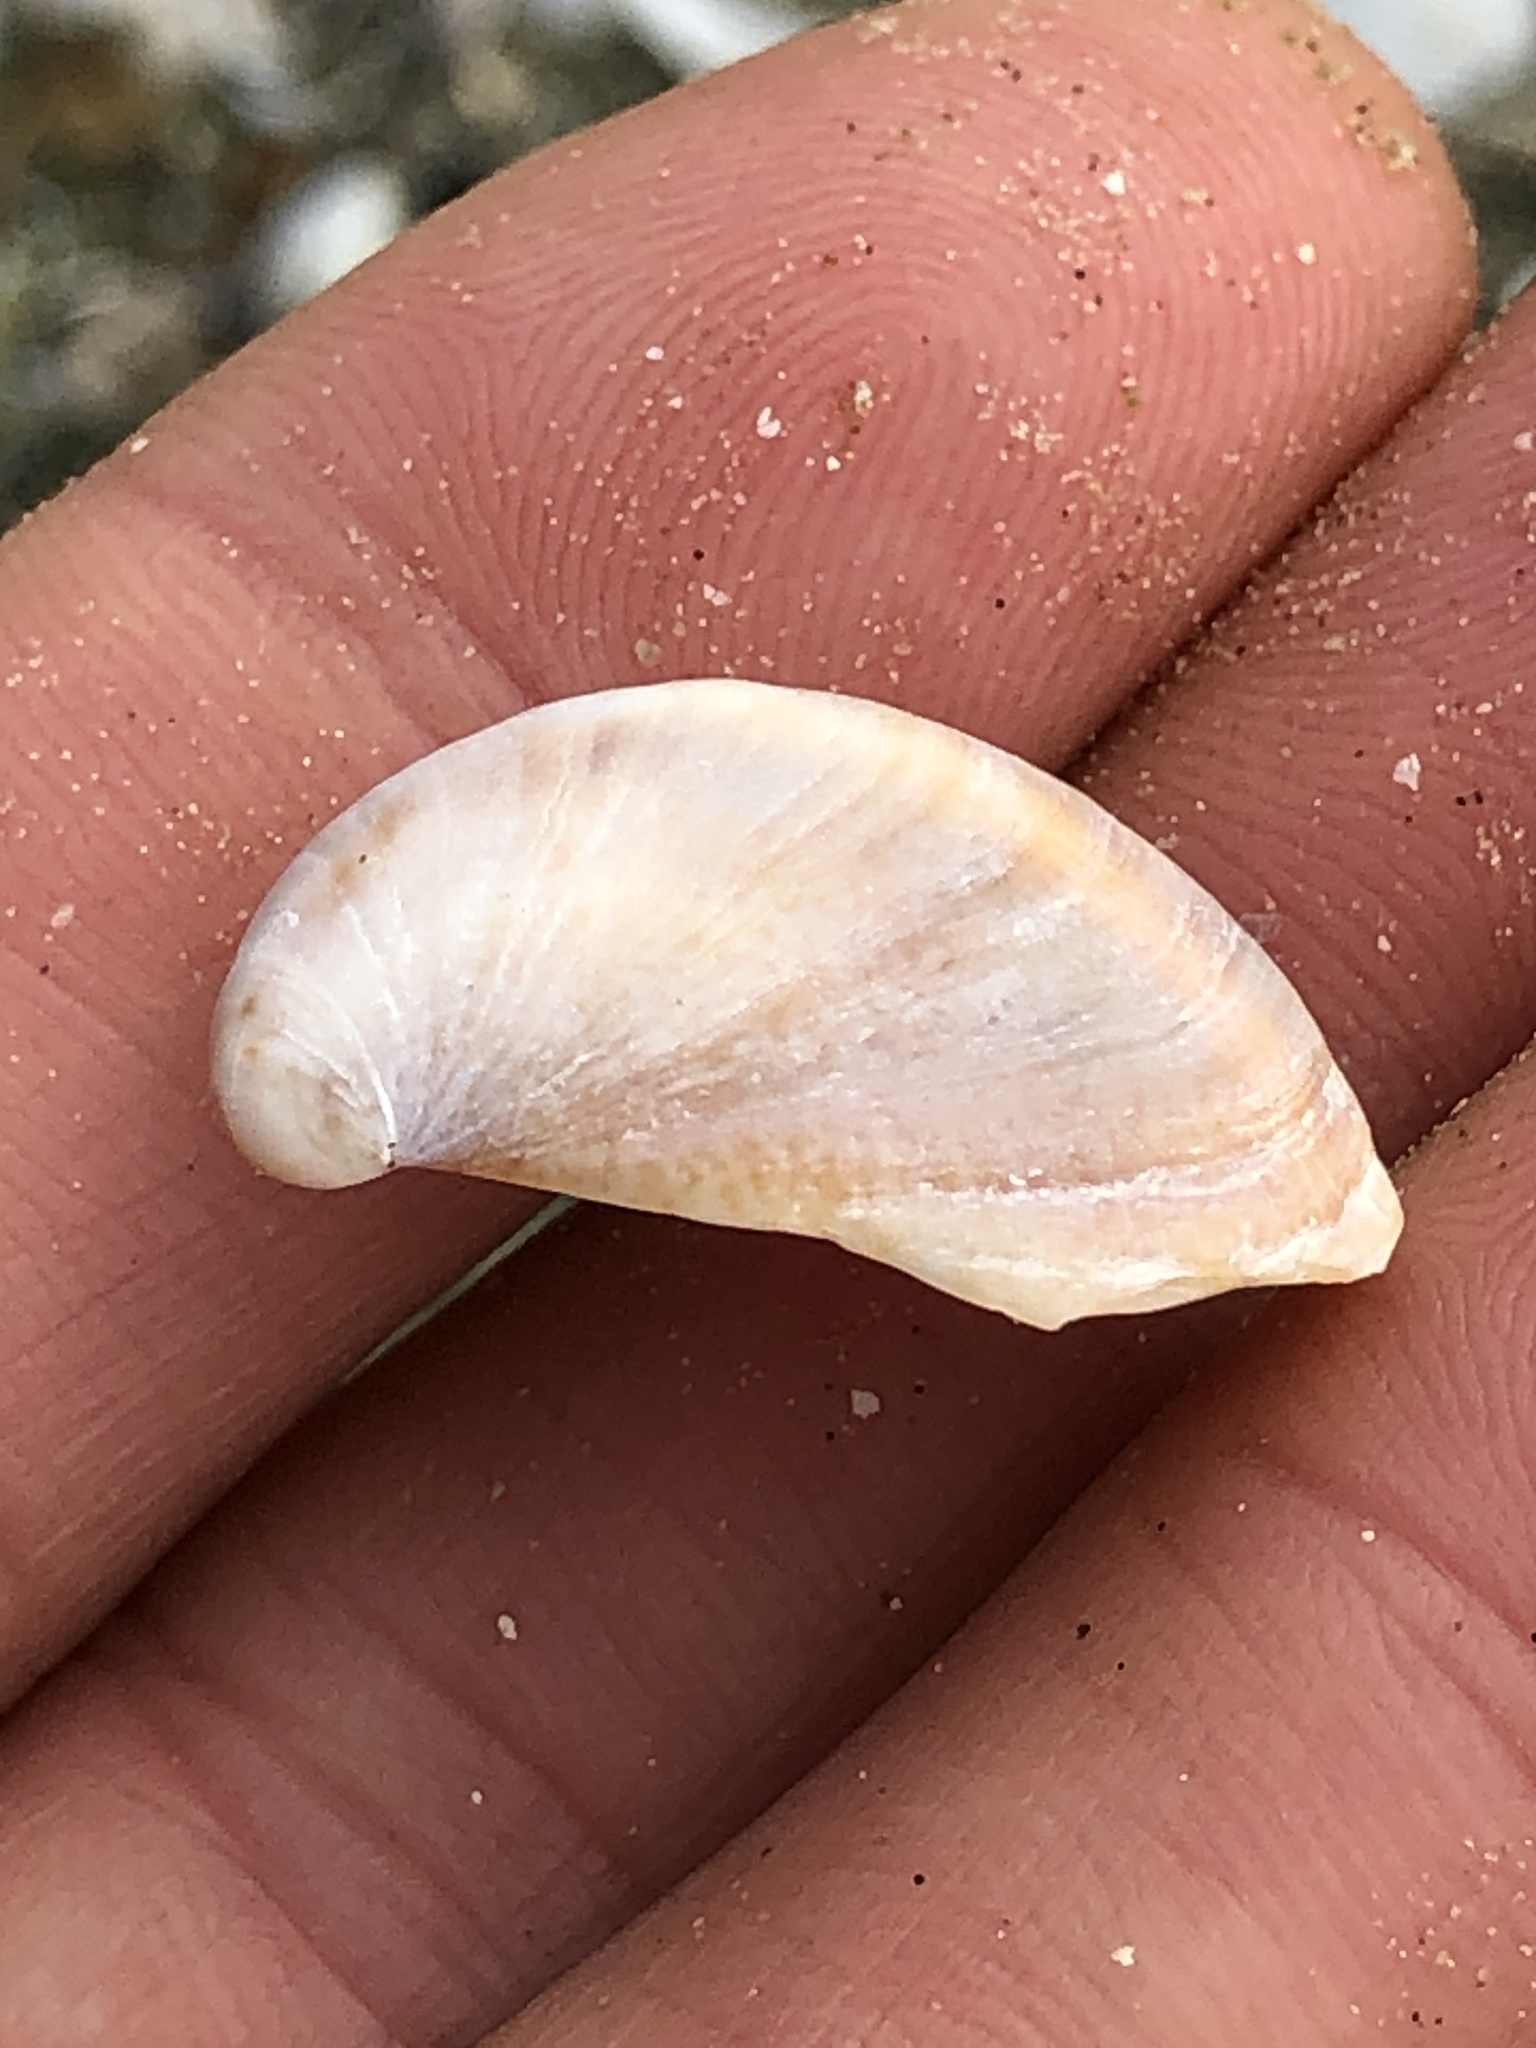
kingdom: Animalia
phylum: Mollusca
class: Gastropoda
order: Littorinimorpha
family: Calyptraeidae
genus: Crepidula
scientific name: Crepidula fornicata
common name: Slipper limpet
